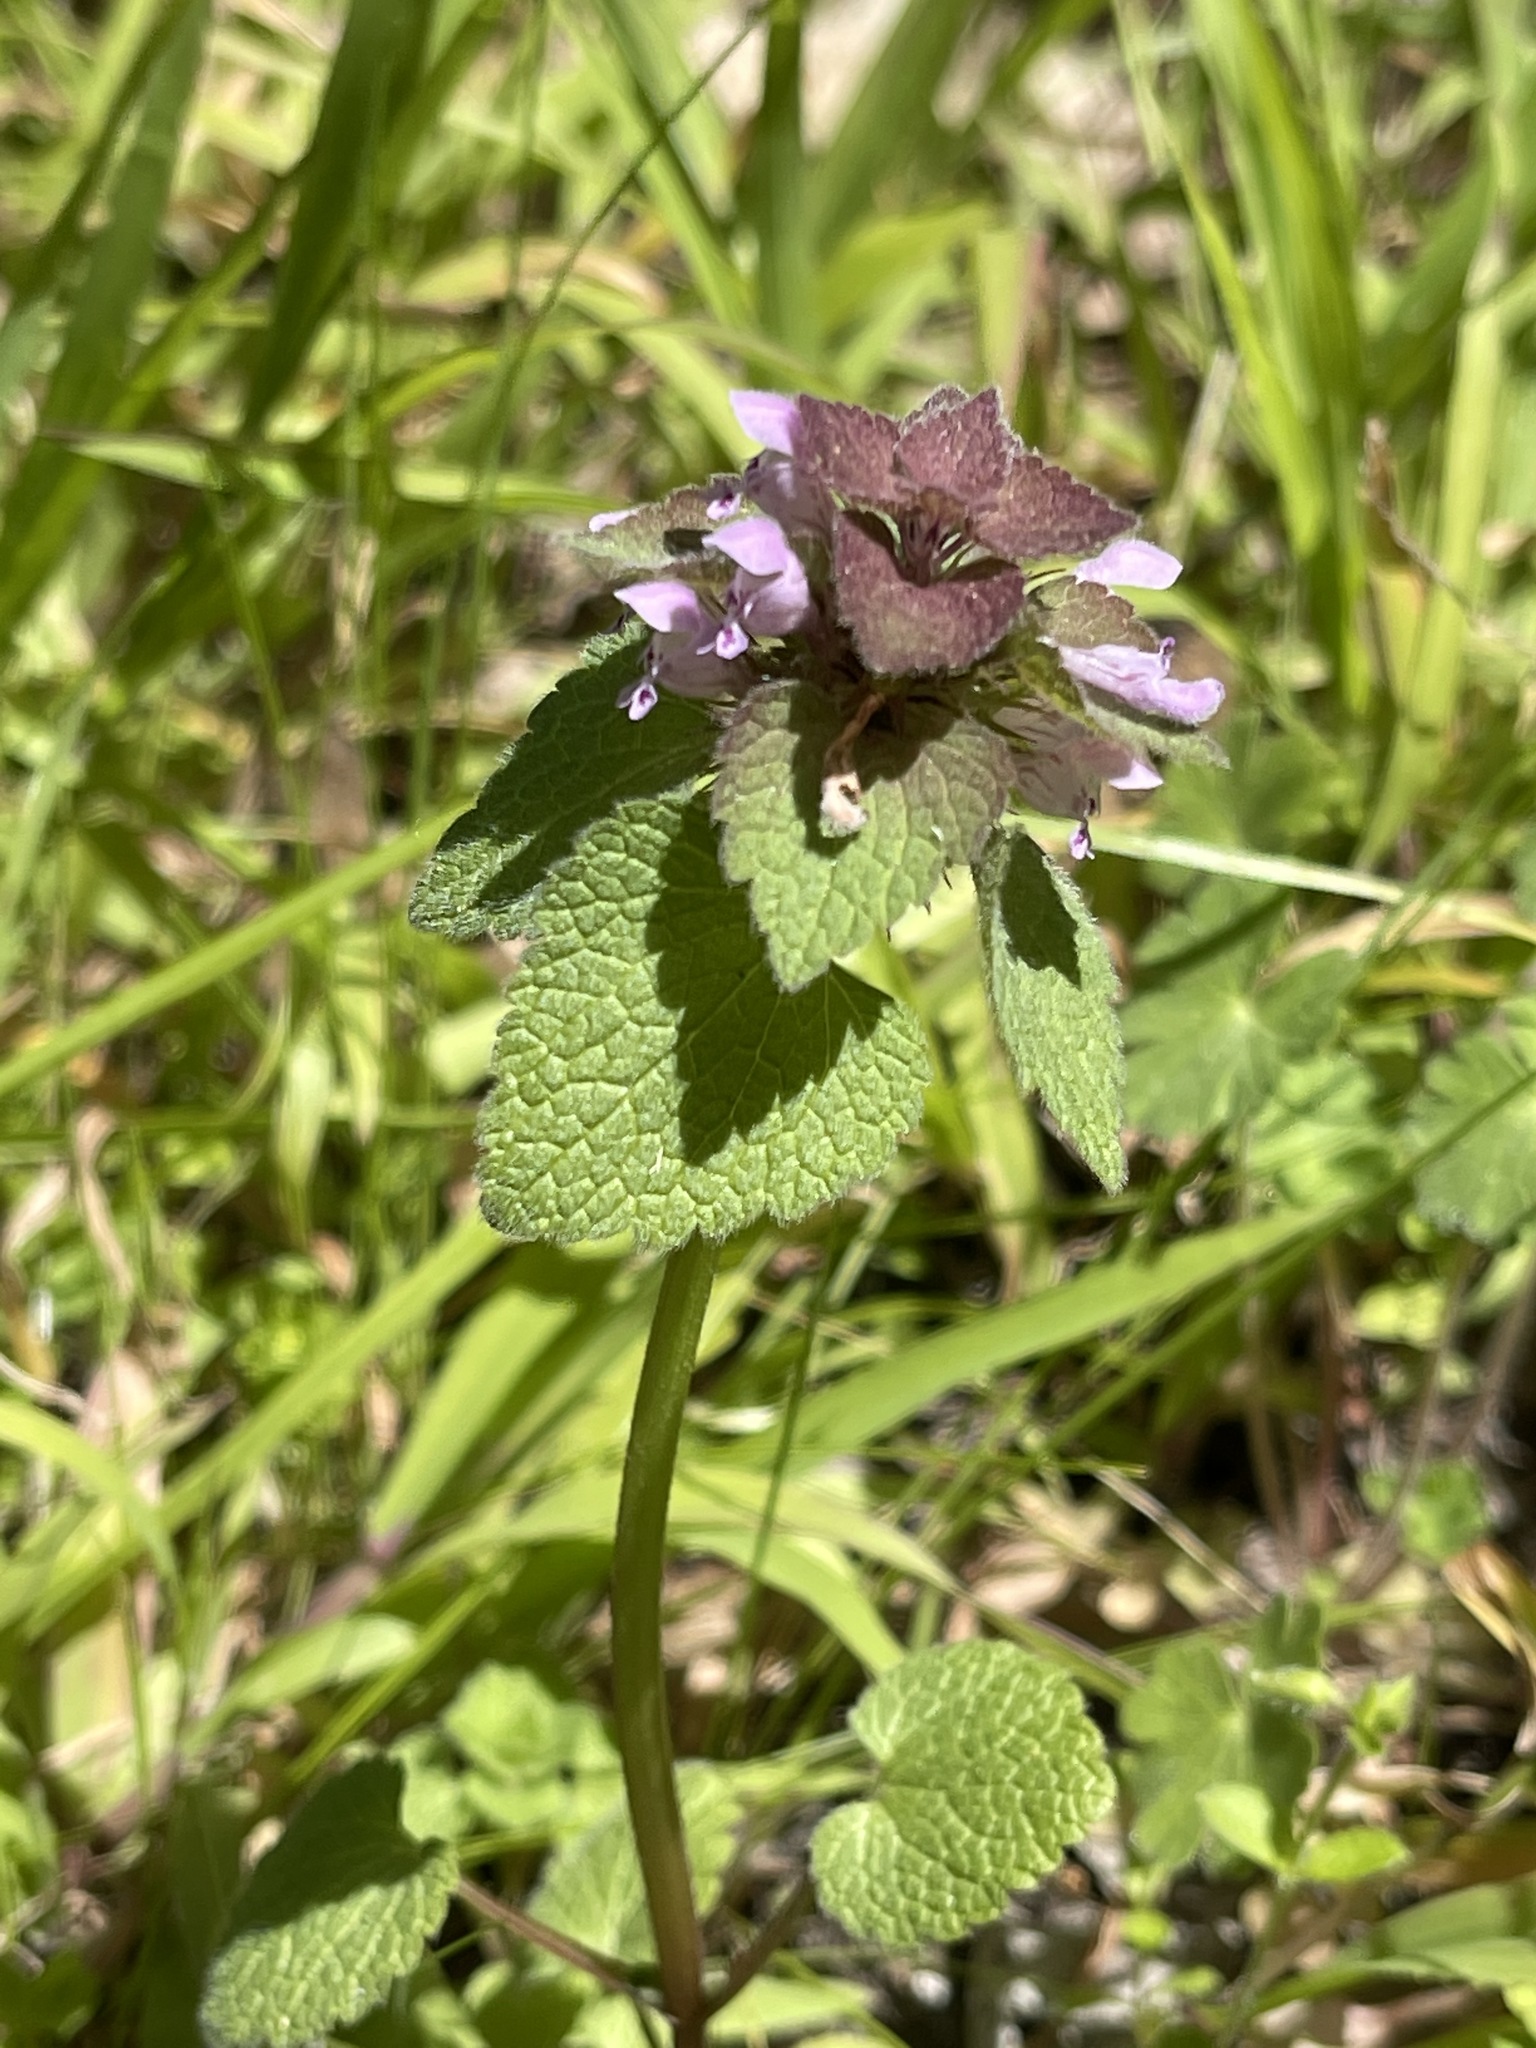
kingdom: Plantae
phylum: Tracheophyta
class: Magnoliopsida
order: Lamiales
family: Lamiaceae
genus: Lamium
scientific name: Lamium purpureum
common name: Red dead-nettle
